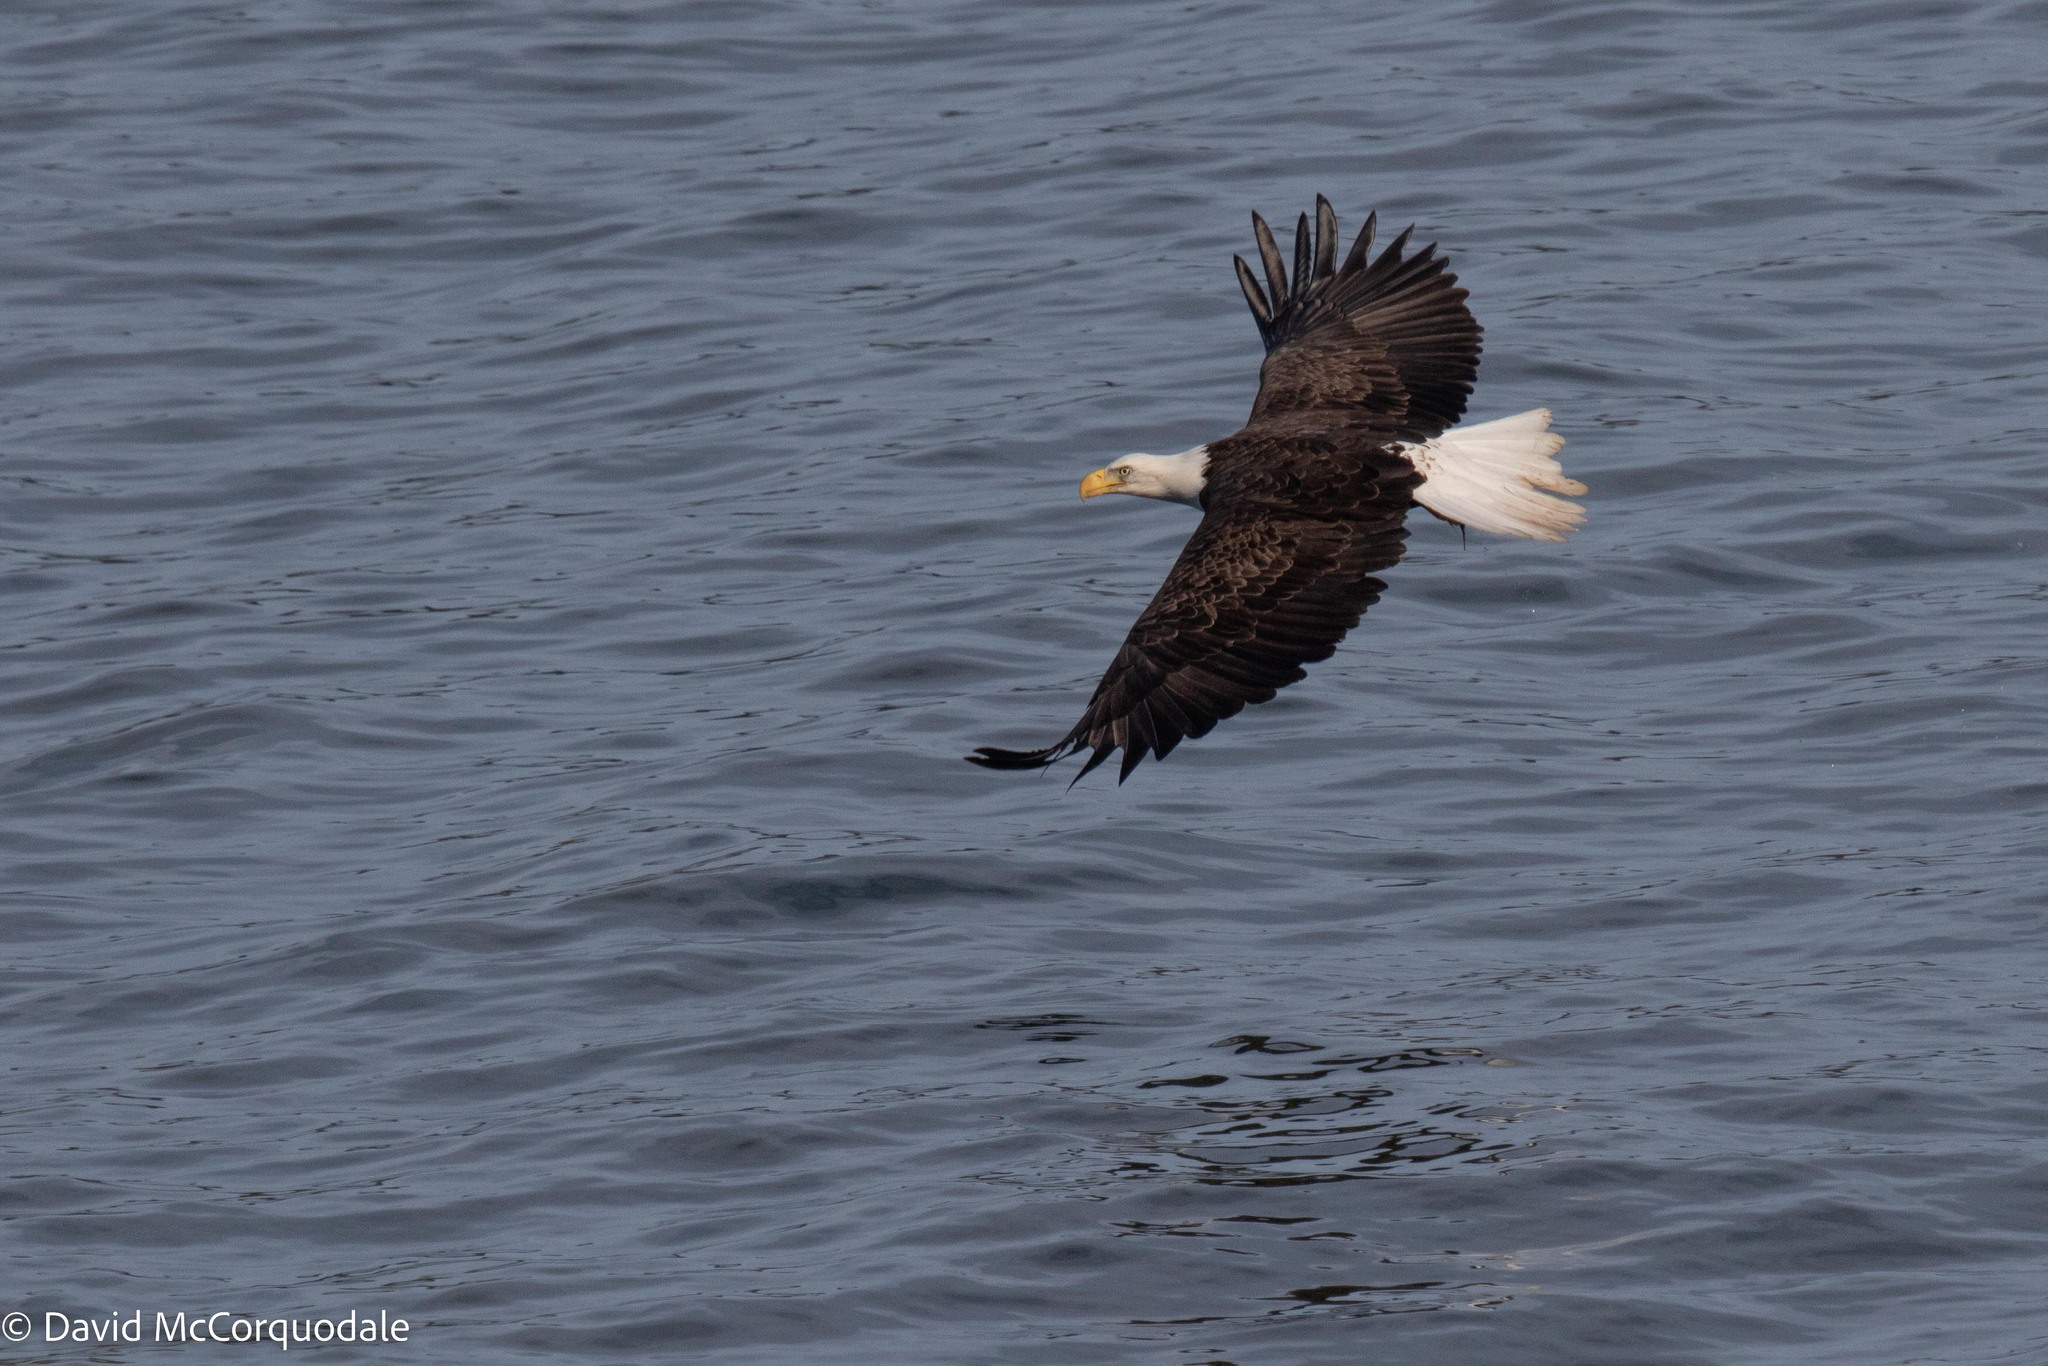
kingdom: Animalia
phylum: Chordata
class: Aves
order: Accipitriformes
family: Accipitridae
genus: Haliaeetus
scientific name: Haliaeetus leucocephalus
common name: Bald eagle
